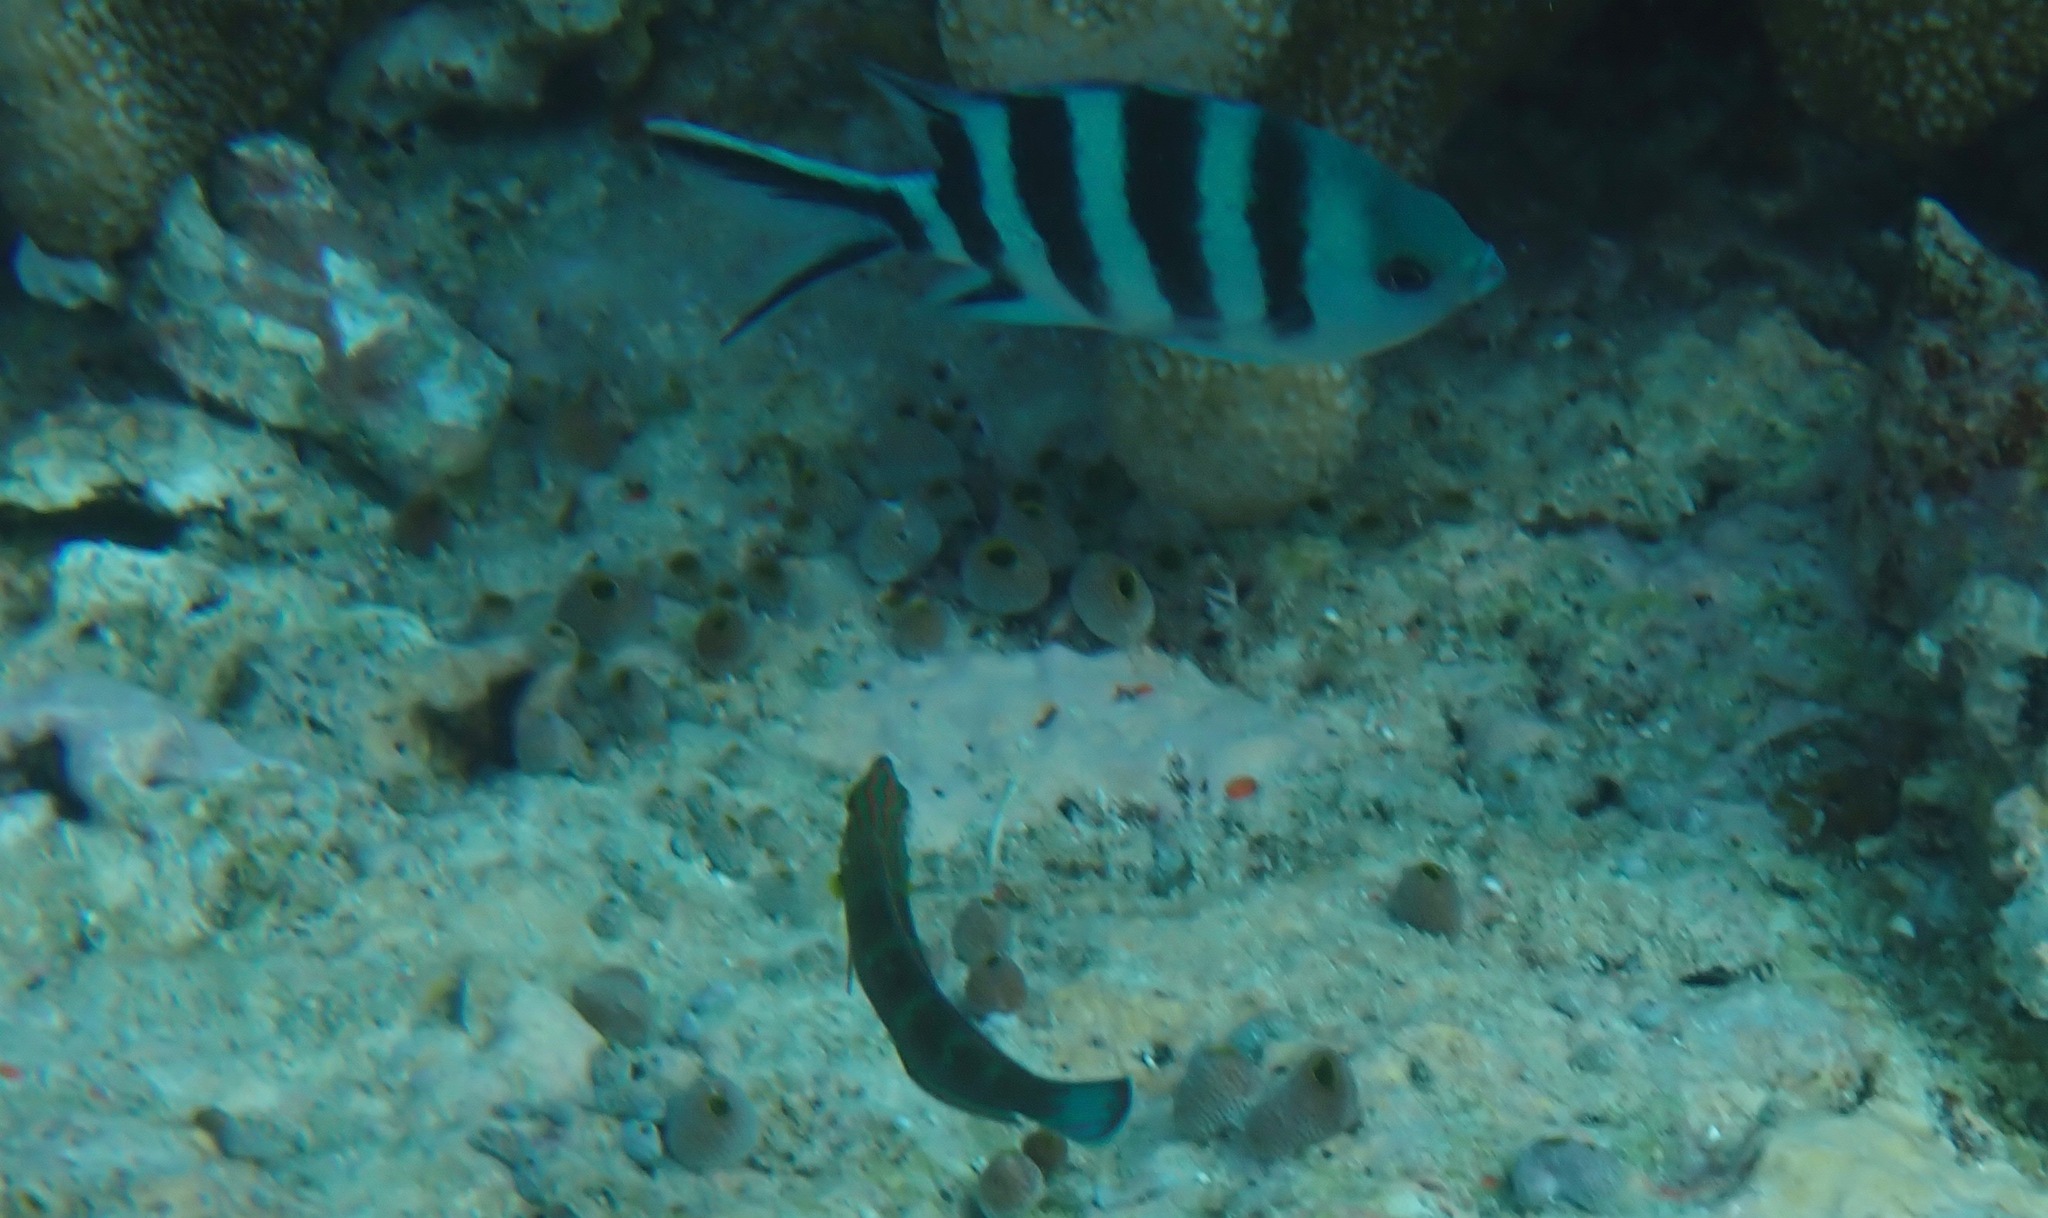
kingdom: Animalia
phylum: Chordata
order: Perciformes
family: Pomacentridae
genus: Abudefduf
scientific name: Abudefduf sexfasciatus
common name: Scissortail sergeant
